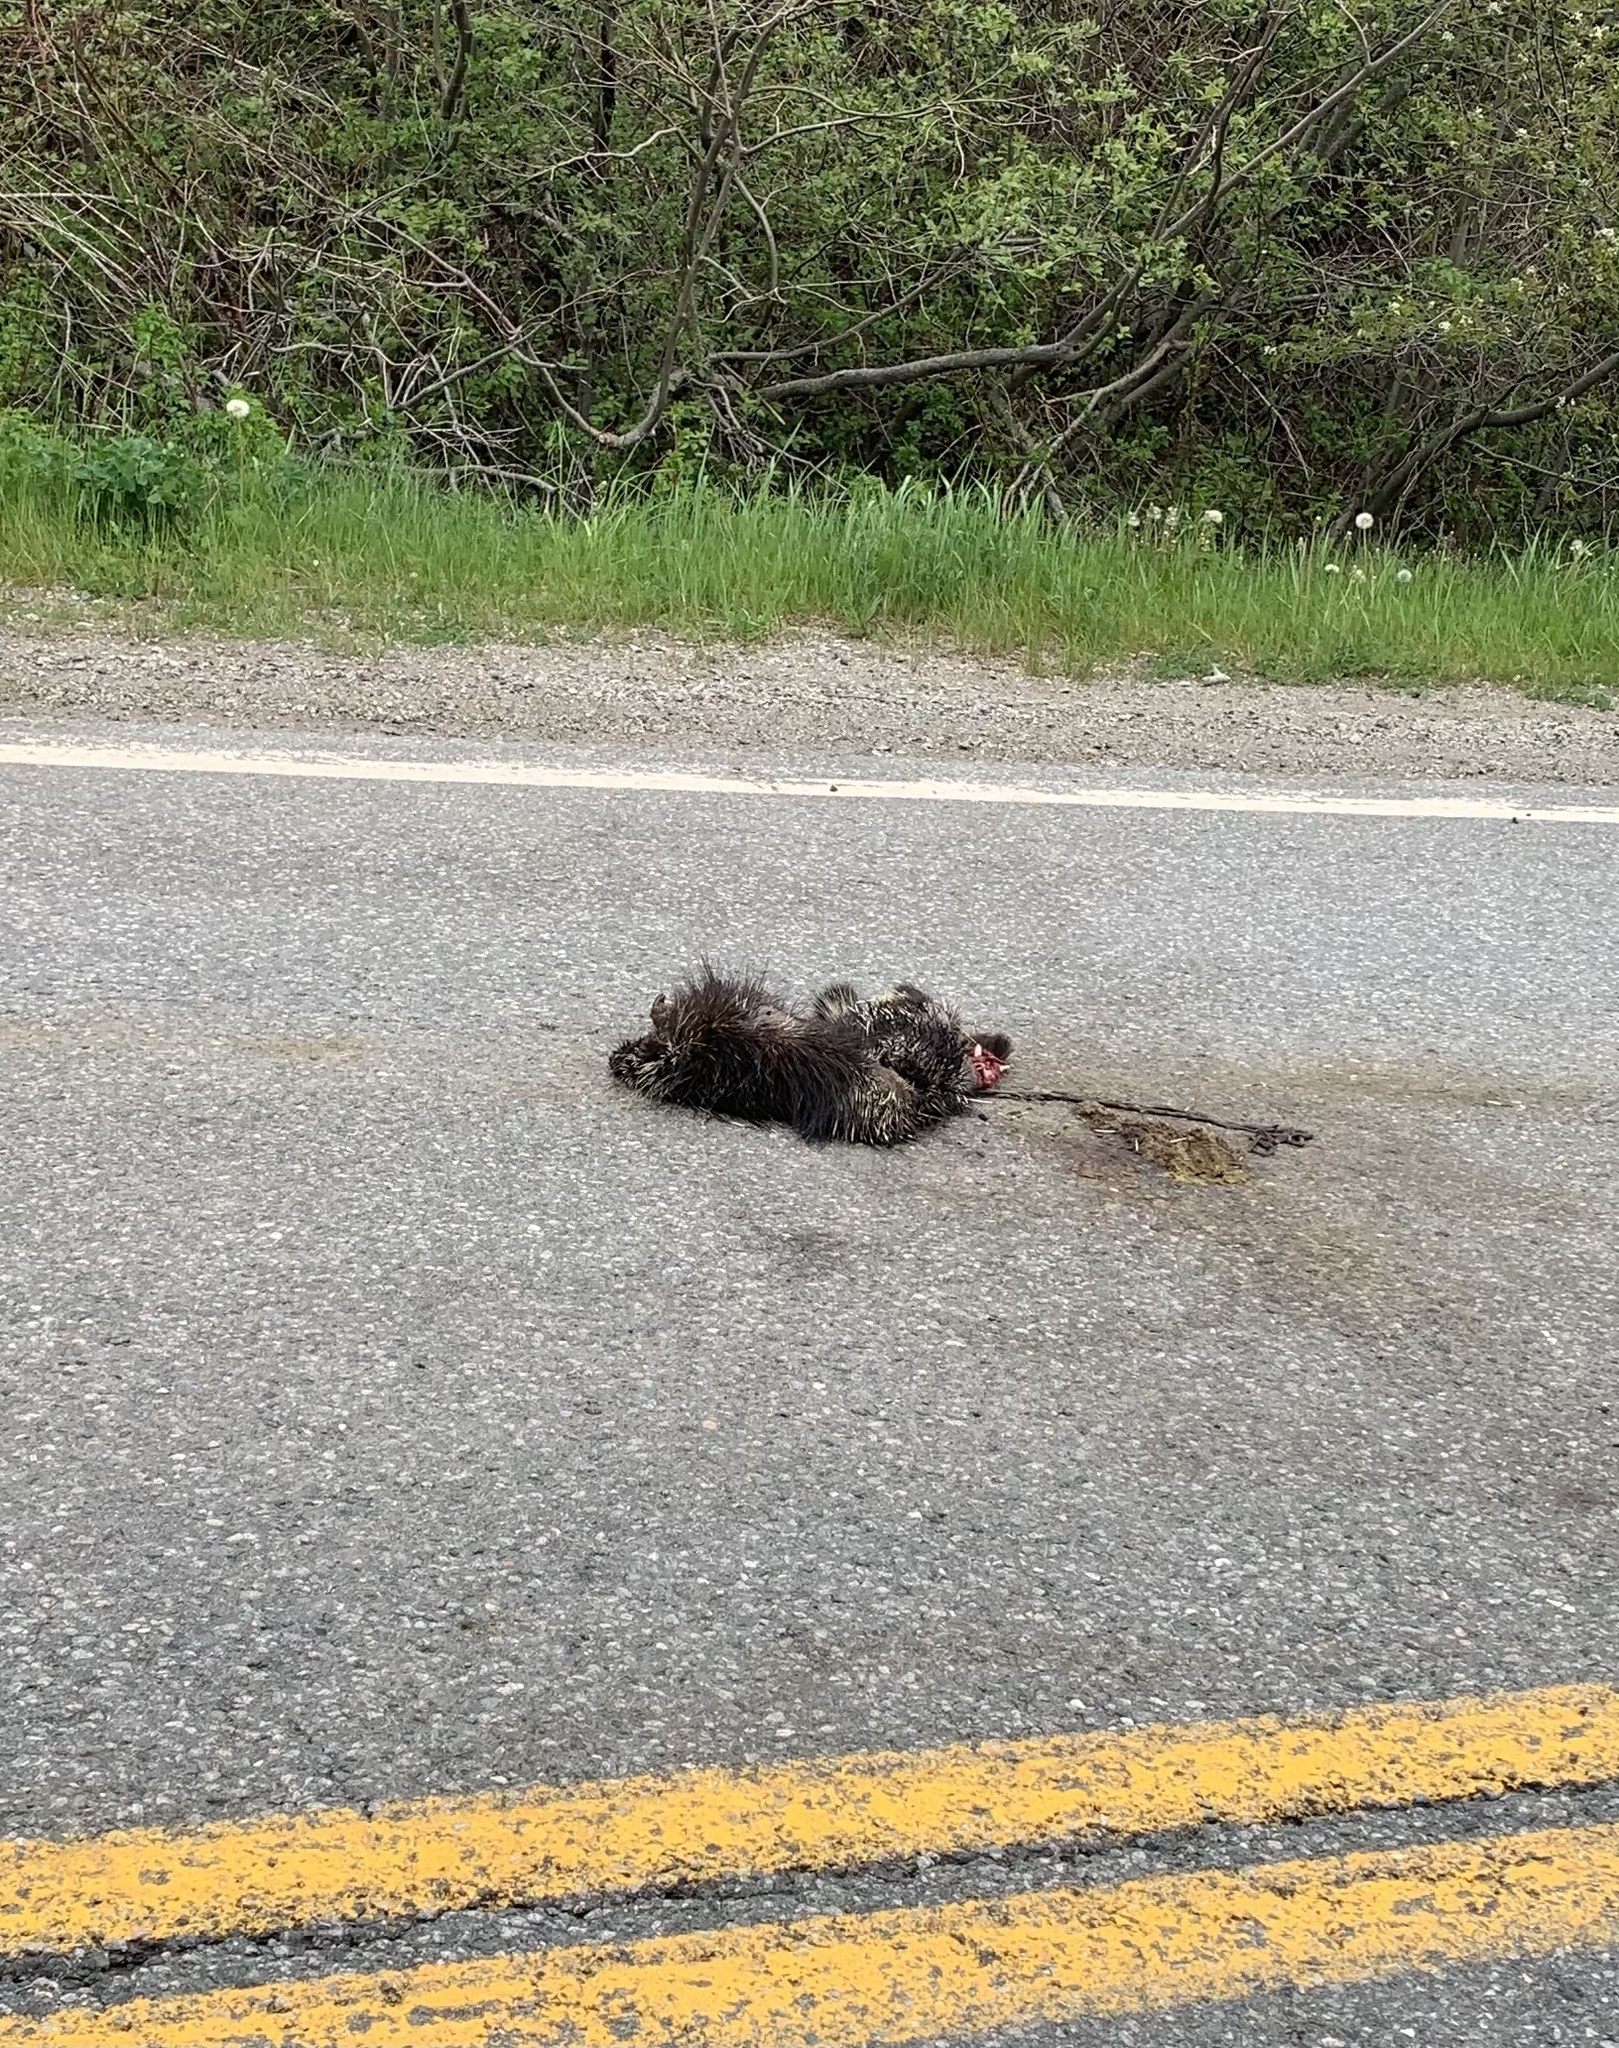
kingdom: Animalia
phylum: Chordata
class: Mammalia
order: Rodentia
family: Erethizontidae
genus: Erethizon
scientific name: Erethizon dorsatus
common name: North american porcupine
